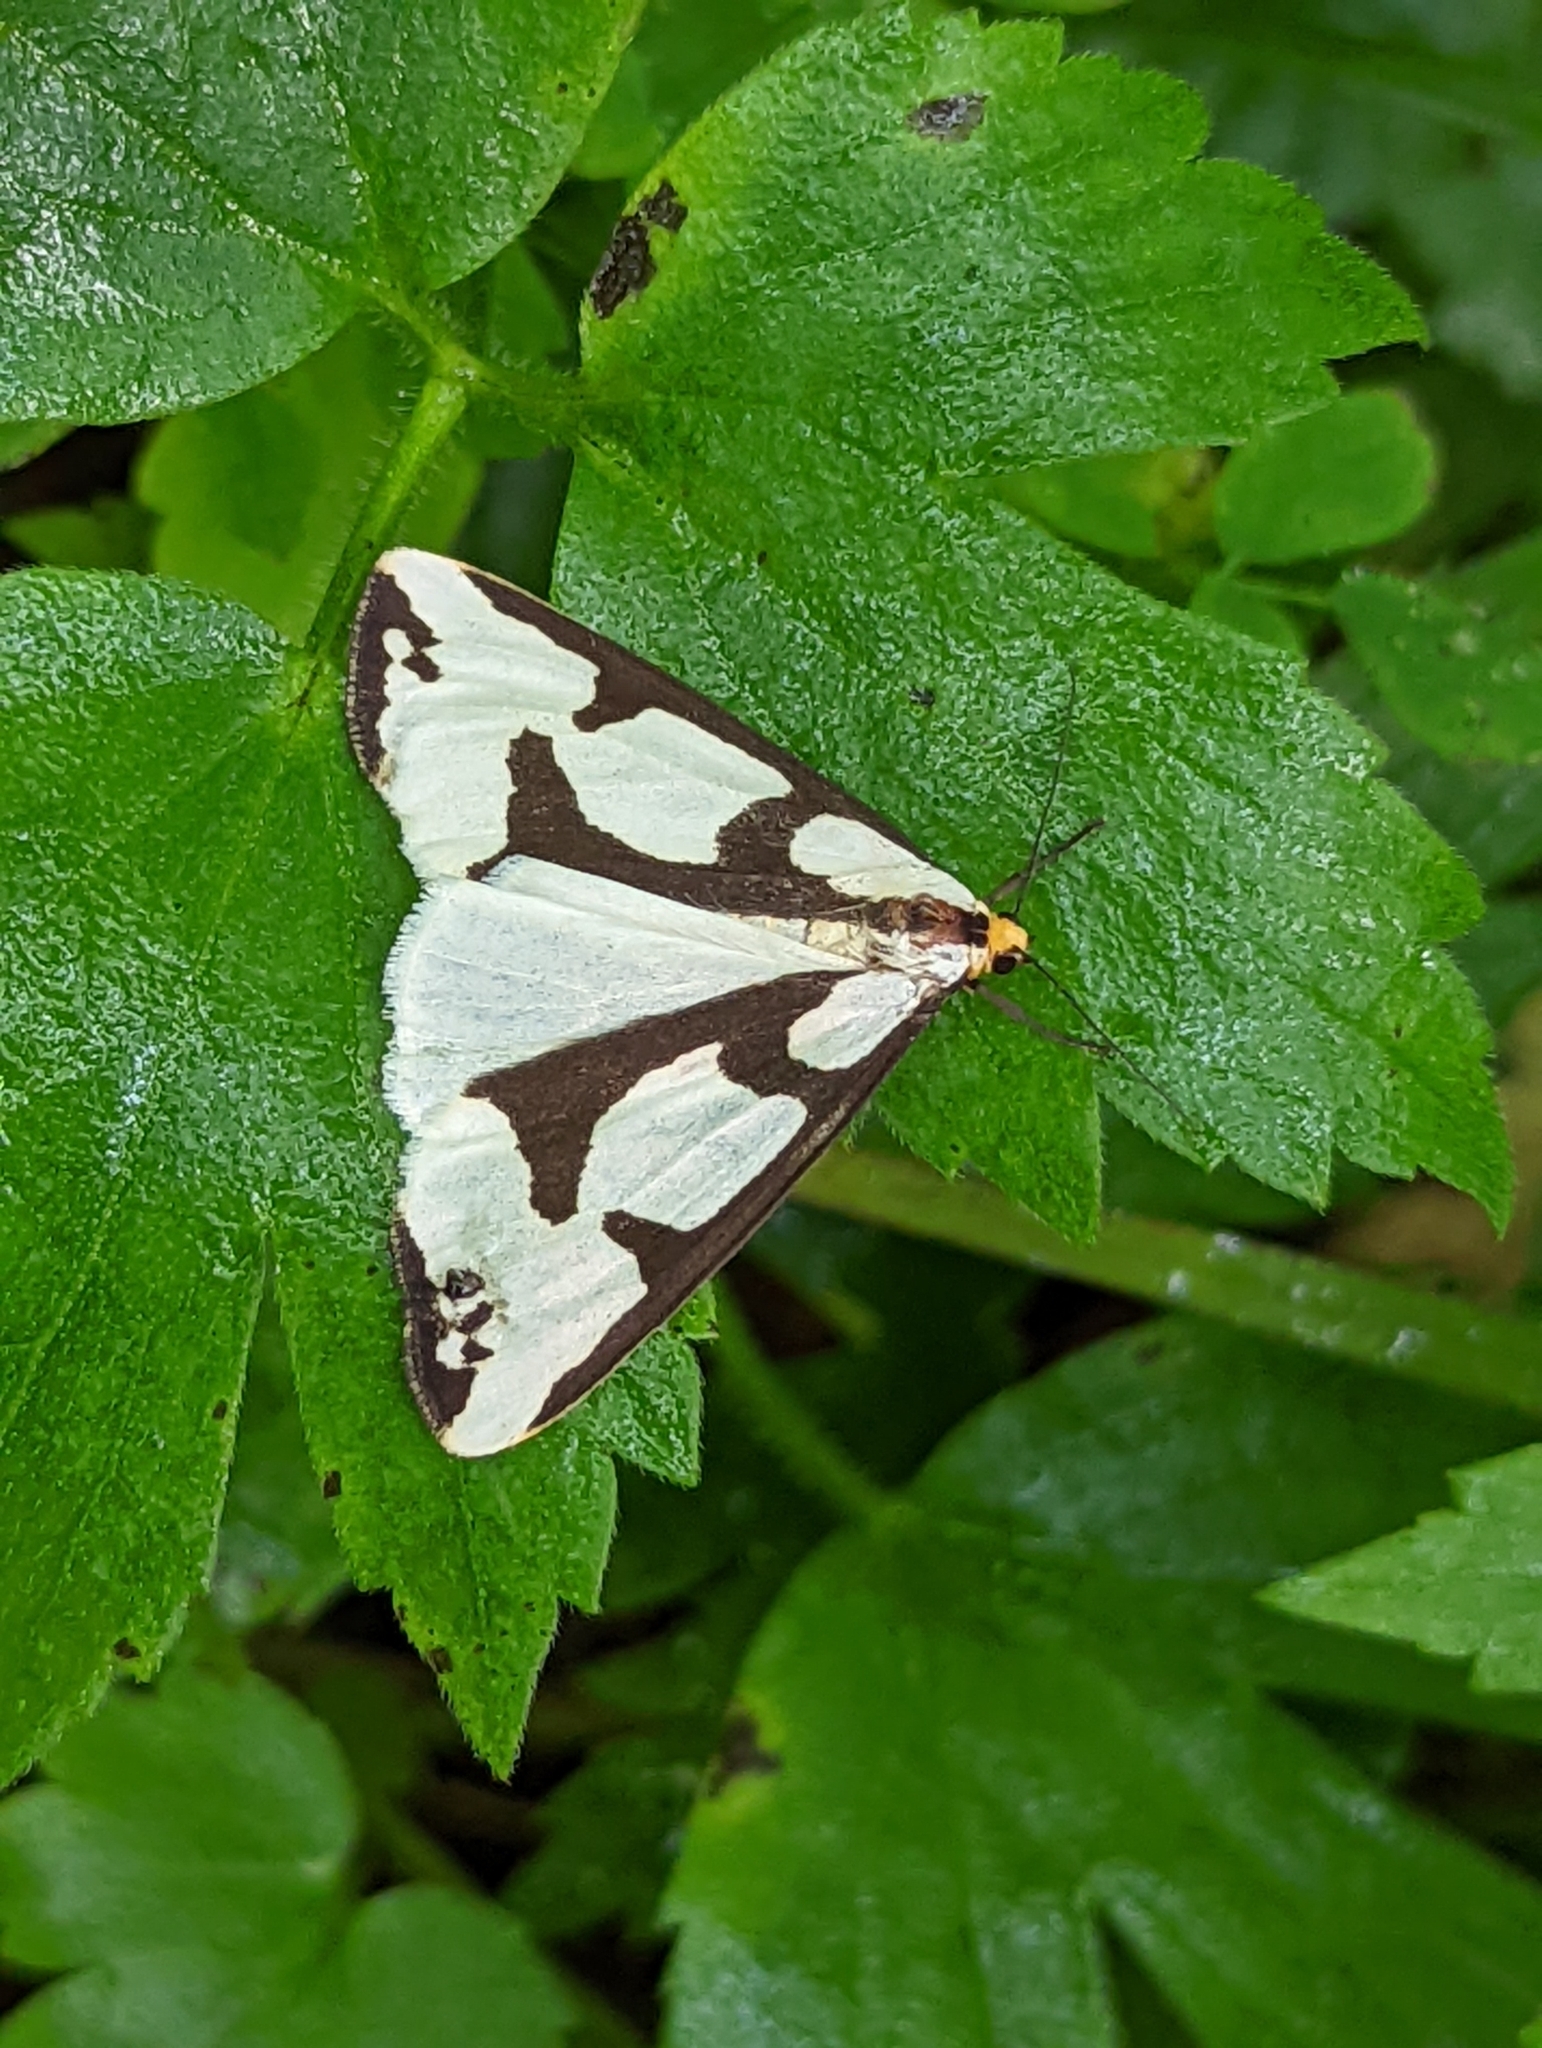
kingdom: Animalia
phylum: Arthropoda
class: Insecta
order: Lepidoptera
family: Erebidae
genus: Haploa
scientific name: Haploa lecontei
